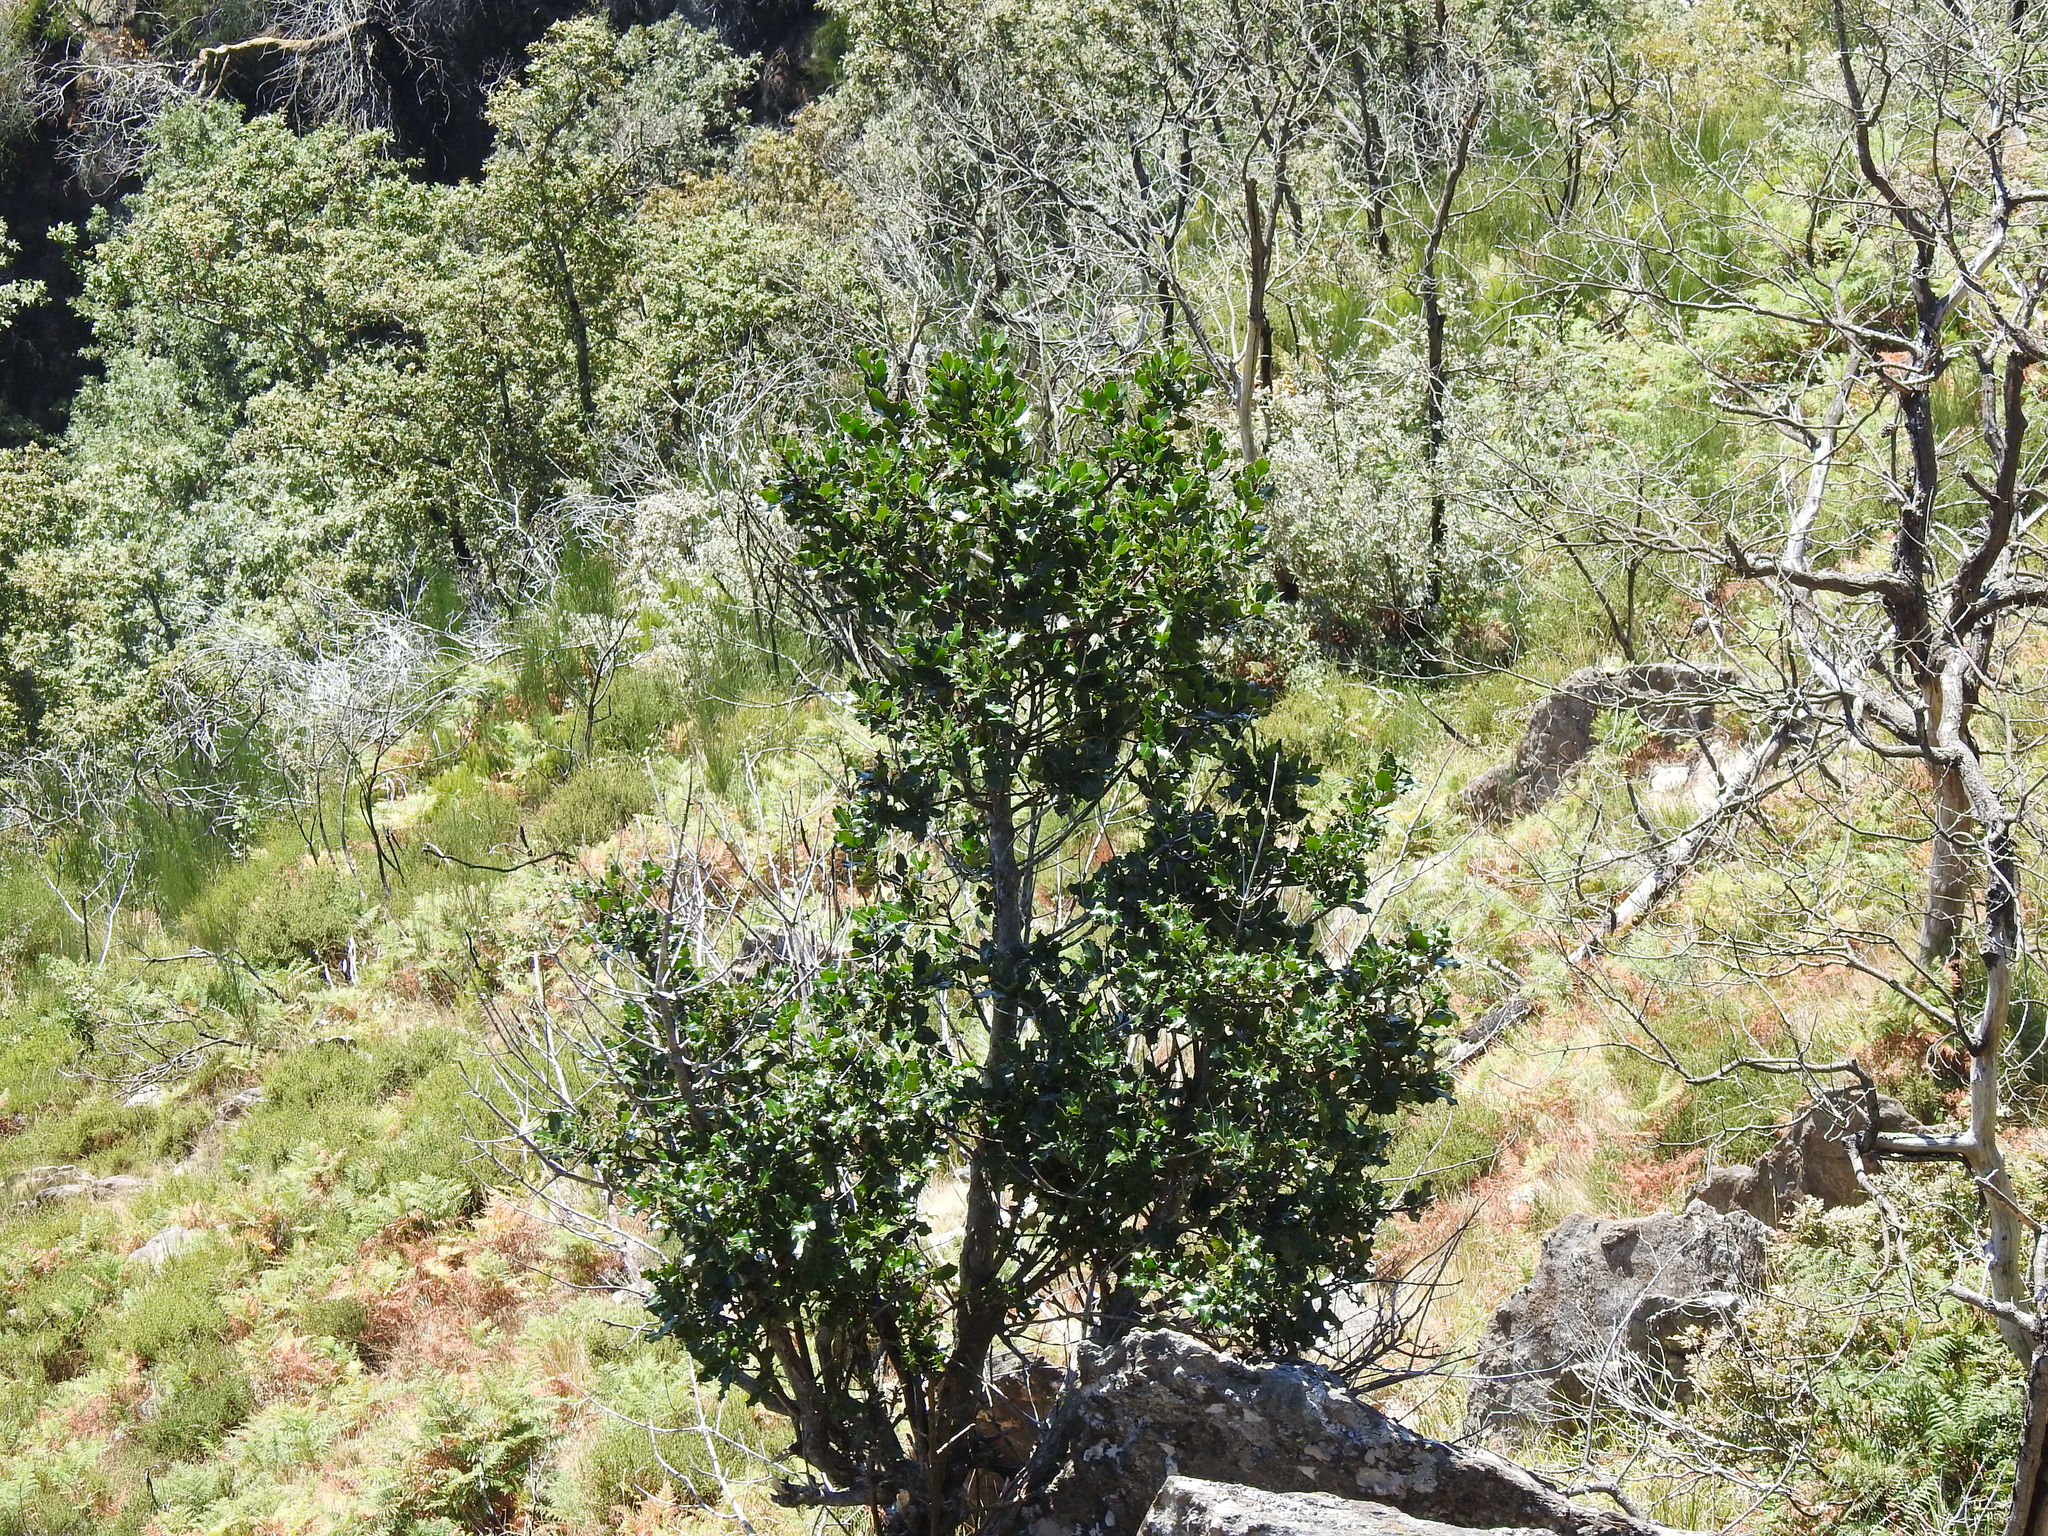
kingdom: Plantae
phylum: Tracheophyta
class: Magnoliopsida
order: Aquifoliales
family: Aquifoliaceae
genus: Ilex
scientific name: Ilex aquifolium
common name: English holly
